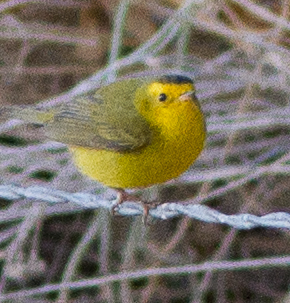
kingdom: Animalia
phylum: Chordata
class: Aves
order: Passeriformes
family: Parulidae
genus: Cardellina
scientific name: Cardellina pusilla
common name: Wilson's warbler
